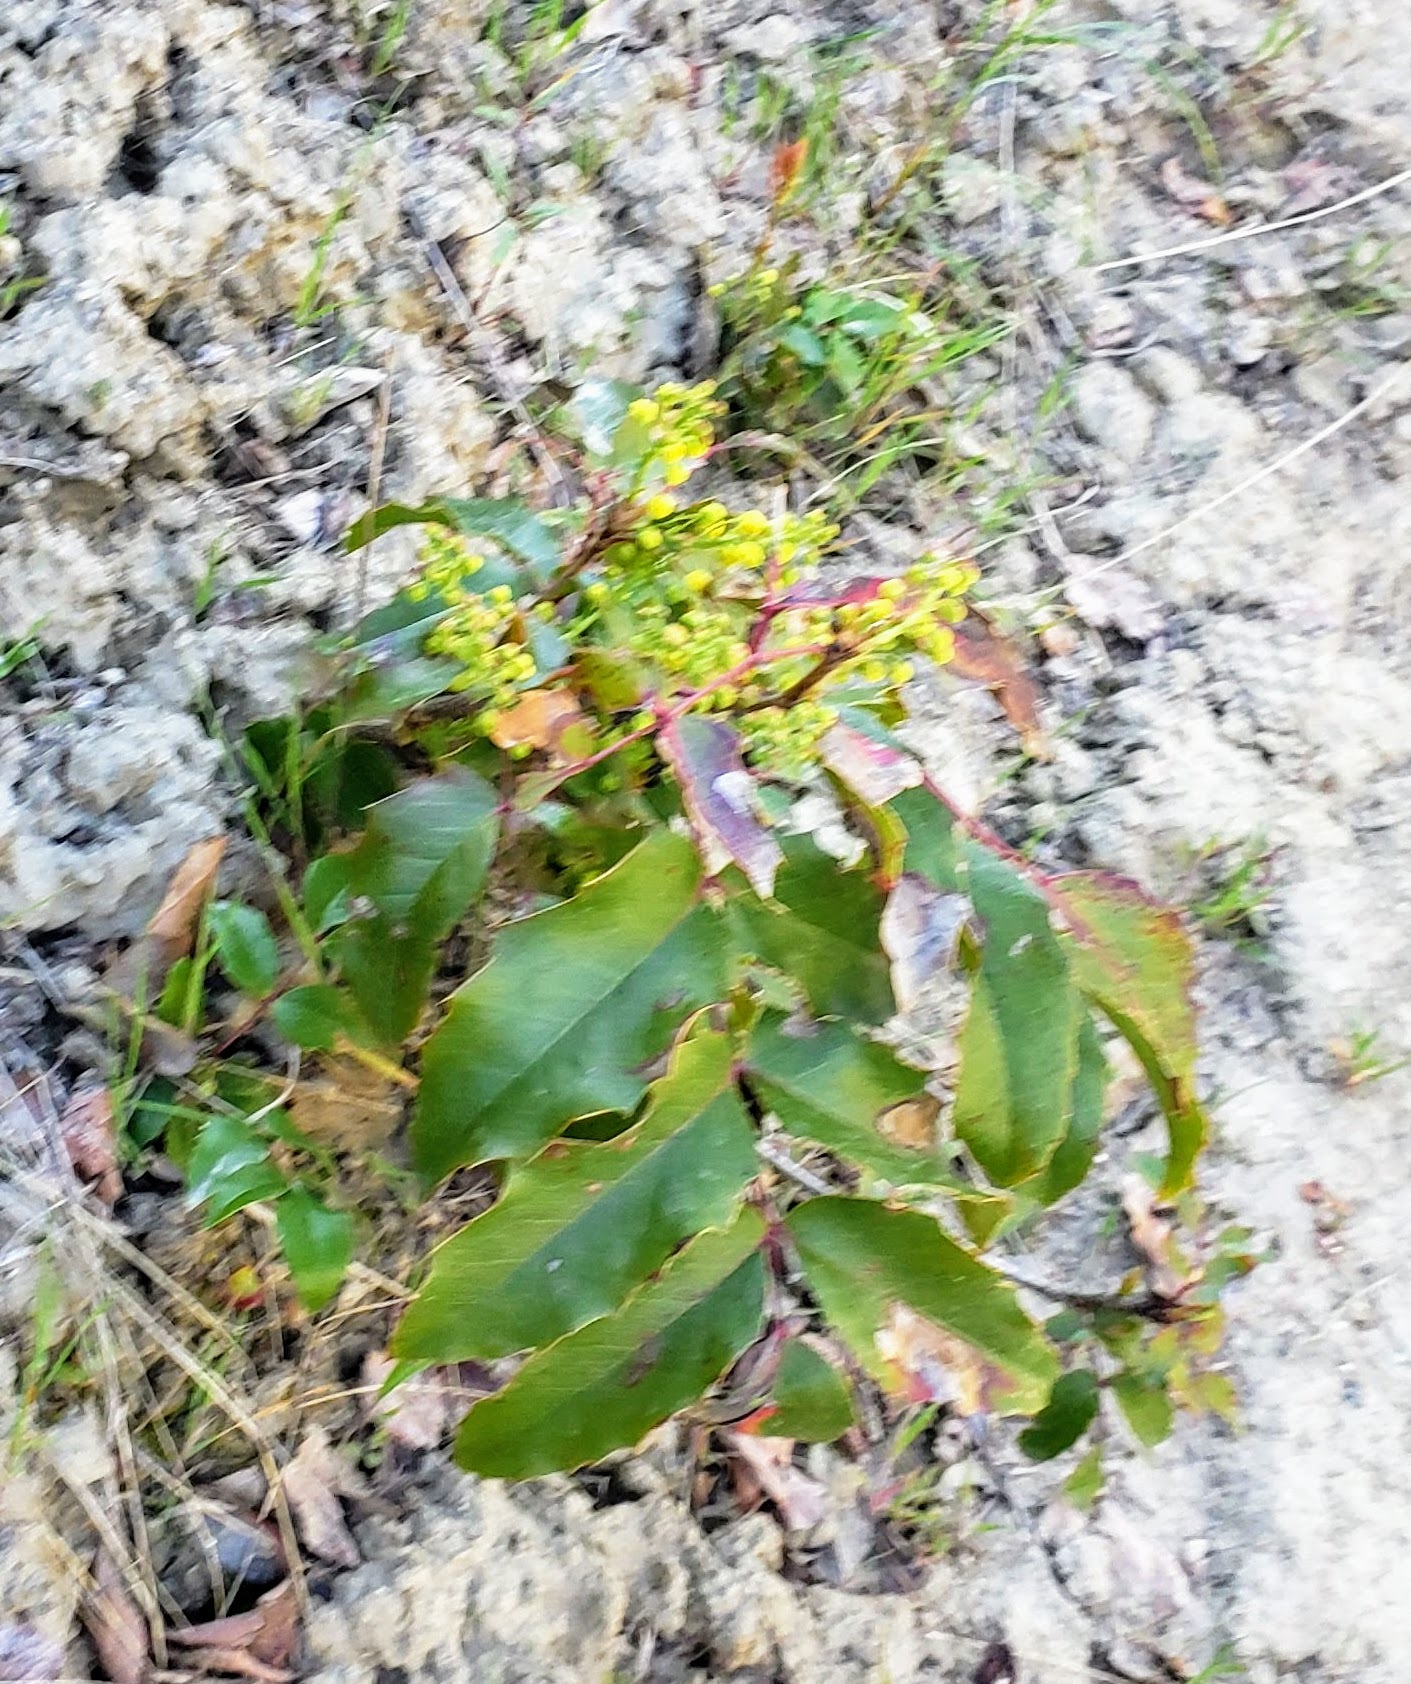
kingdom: Plantae
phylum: Tracheophyta
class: Magnoliopsida
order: Ranunculales
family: Berberidaceae
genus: Mahonia
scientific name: Mahonia aquifolium
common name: Oregon-grape
